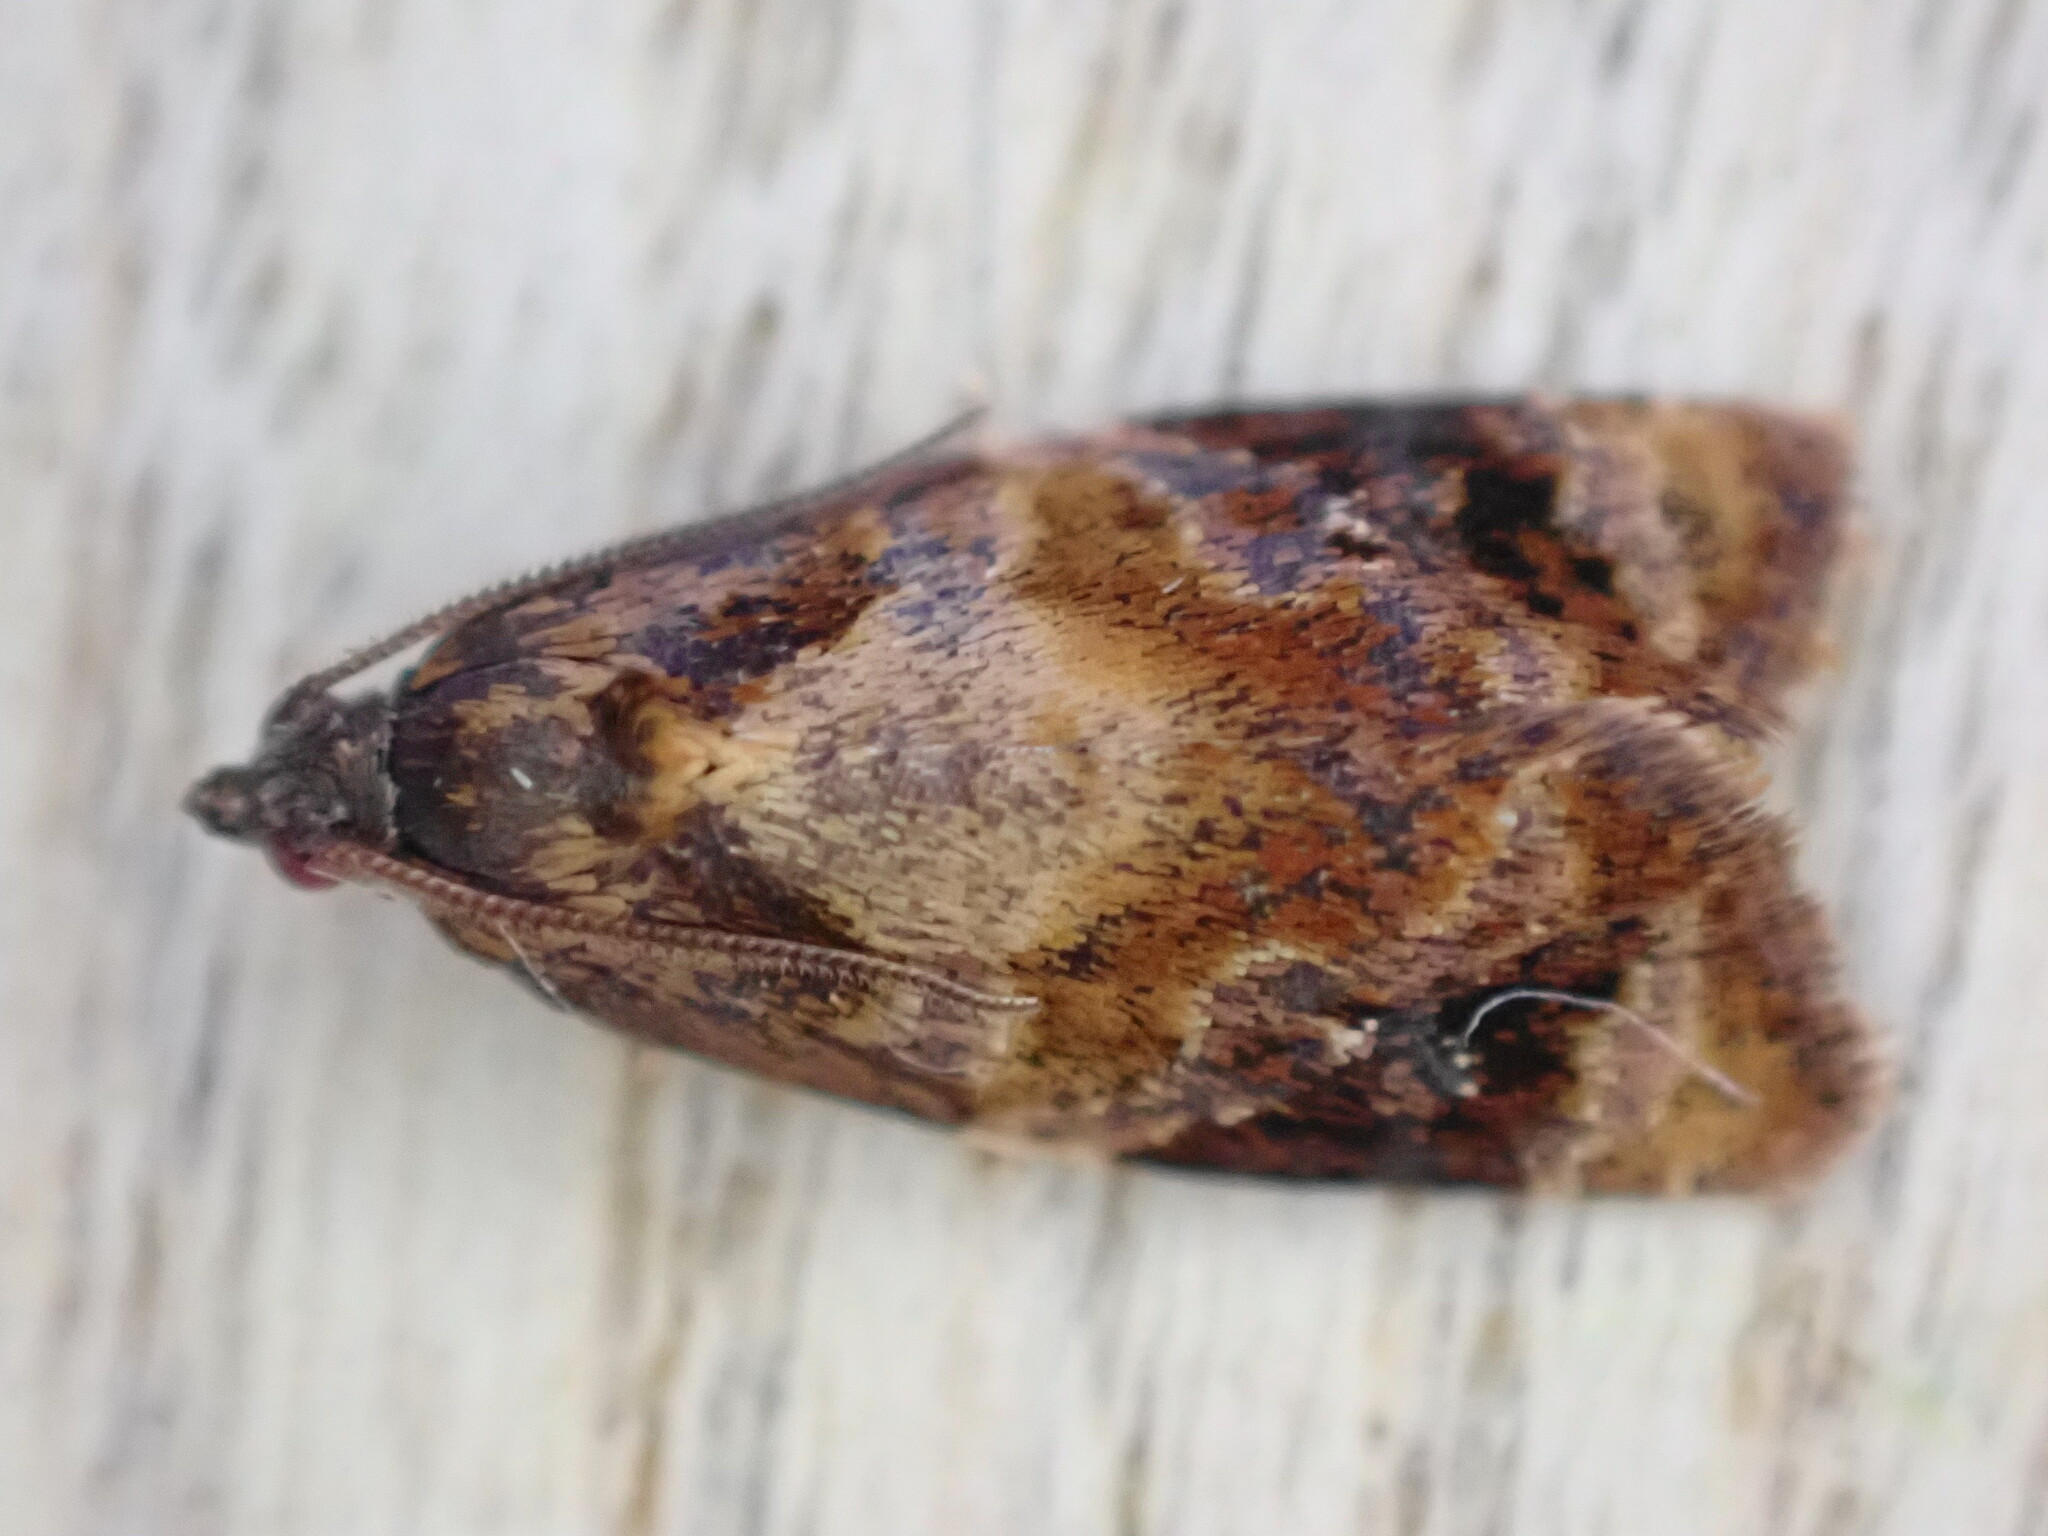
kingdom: Animalia
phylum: Arthropoda
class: Insecta
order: Lepidoptera
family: Tortricidae
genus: Ditula
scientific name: Ditula angustiorana
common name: Red-barred tortrix
